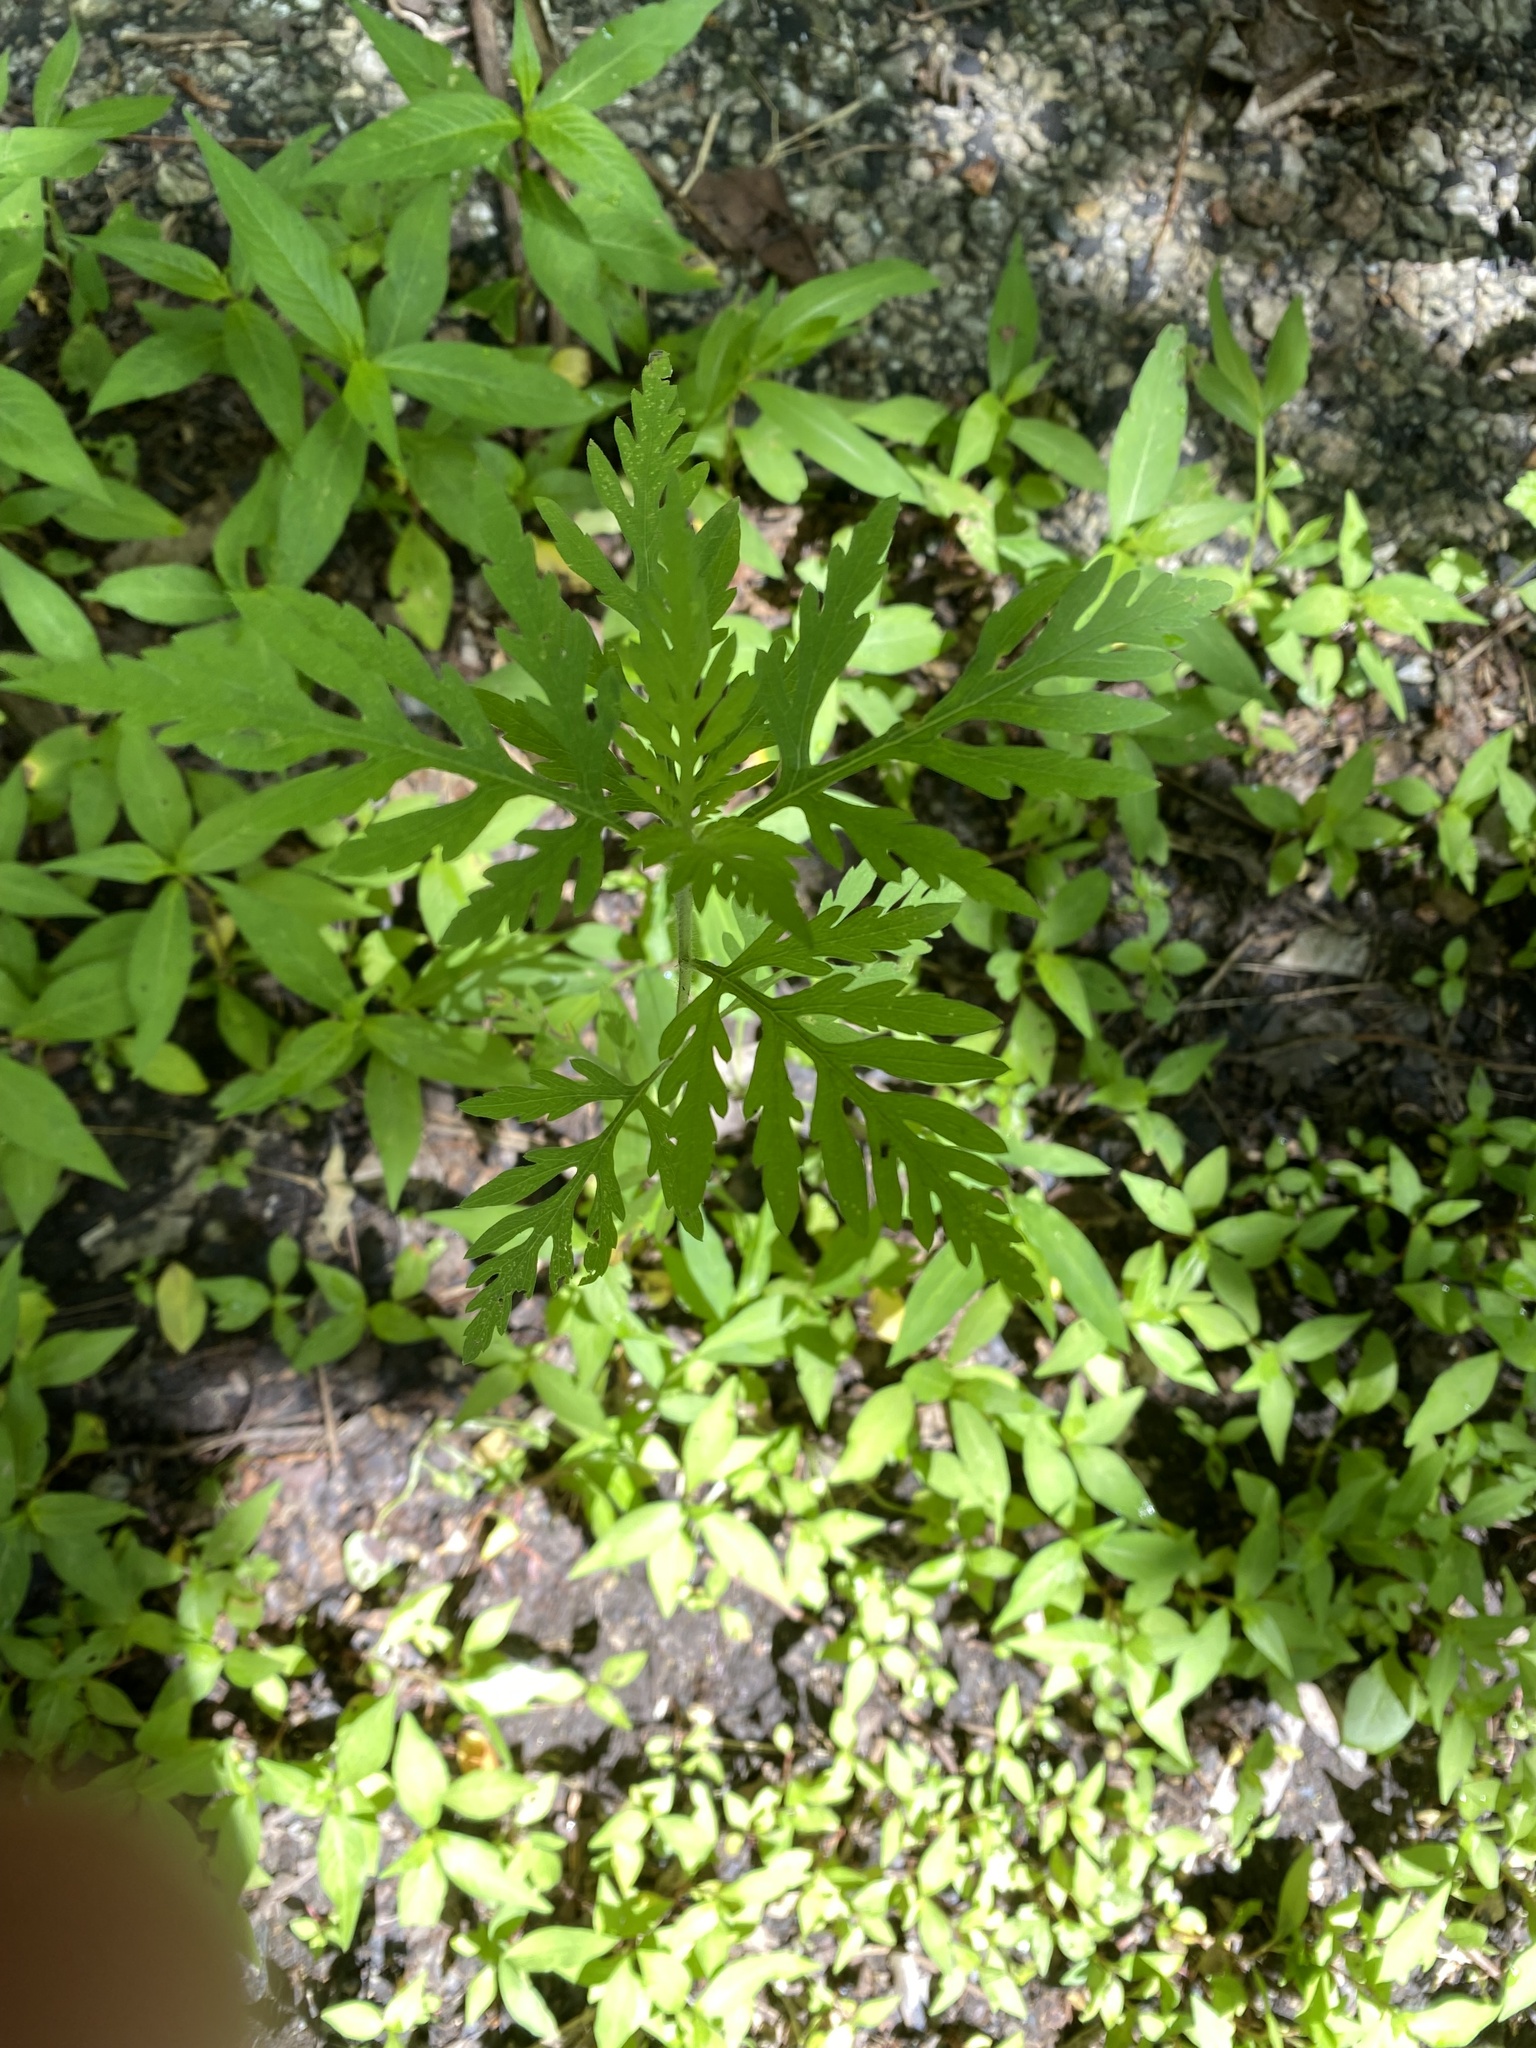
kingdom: Plantae
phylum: Tracheophyta
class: Magnoliopsida
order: Asterales
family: Asteraceae
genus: Ambrosia
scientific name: Ambrosia artemisiifolia
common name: Annual ragweed
